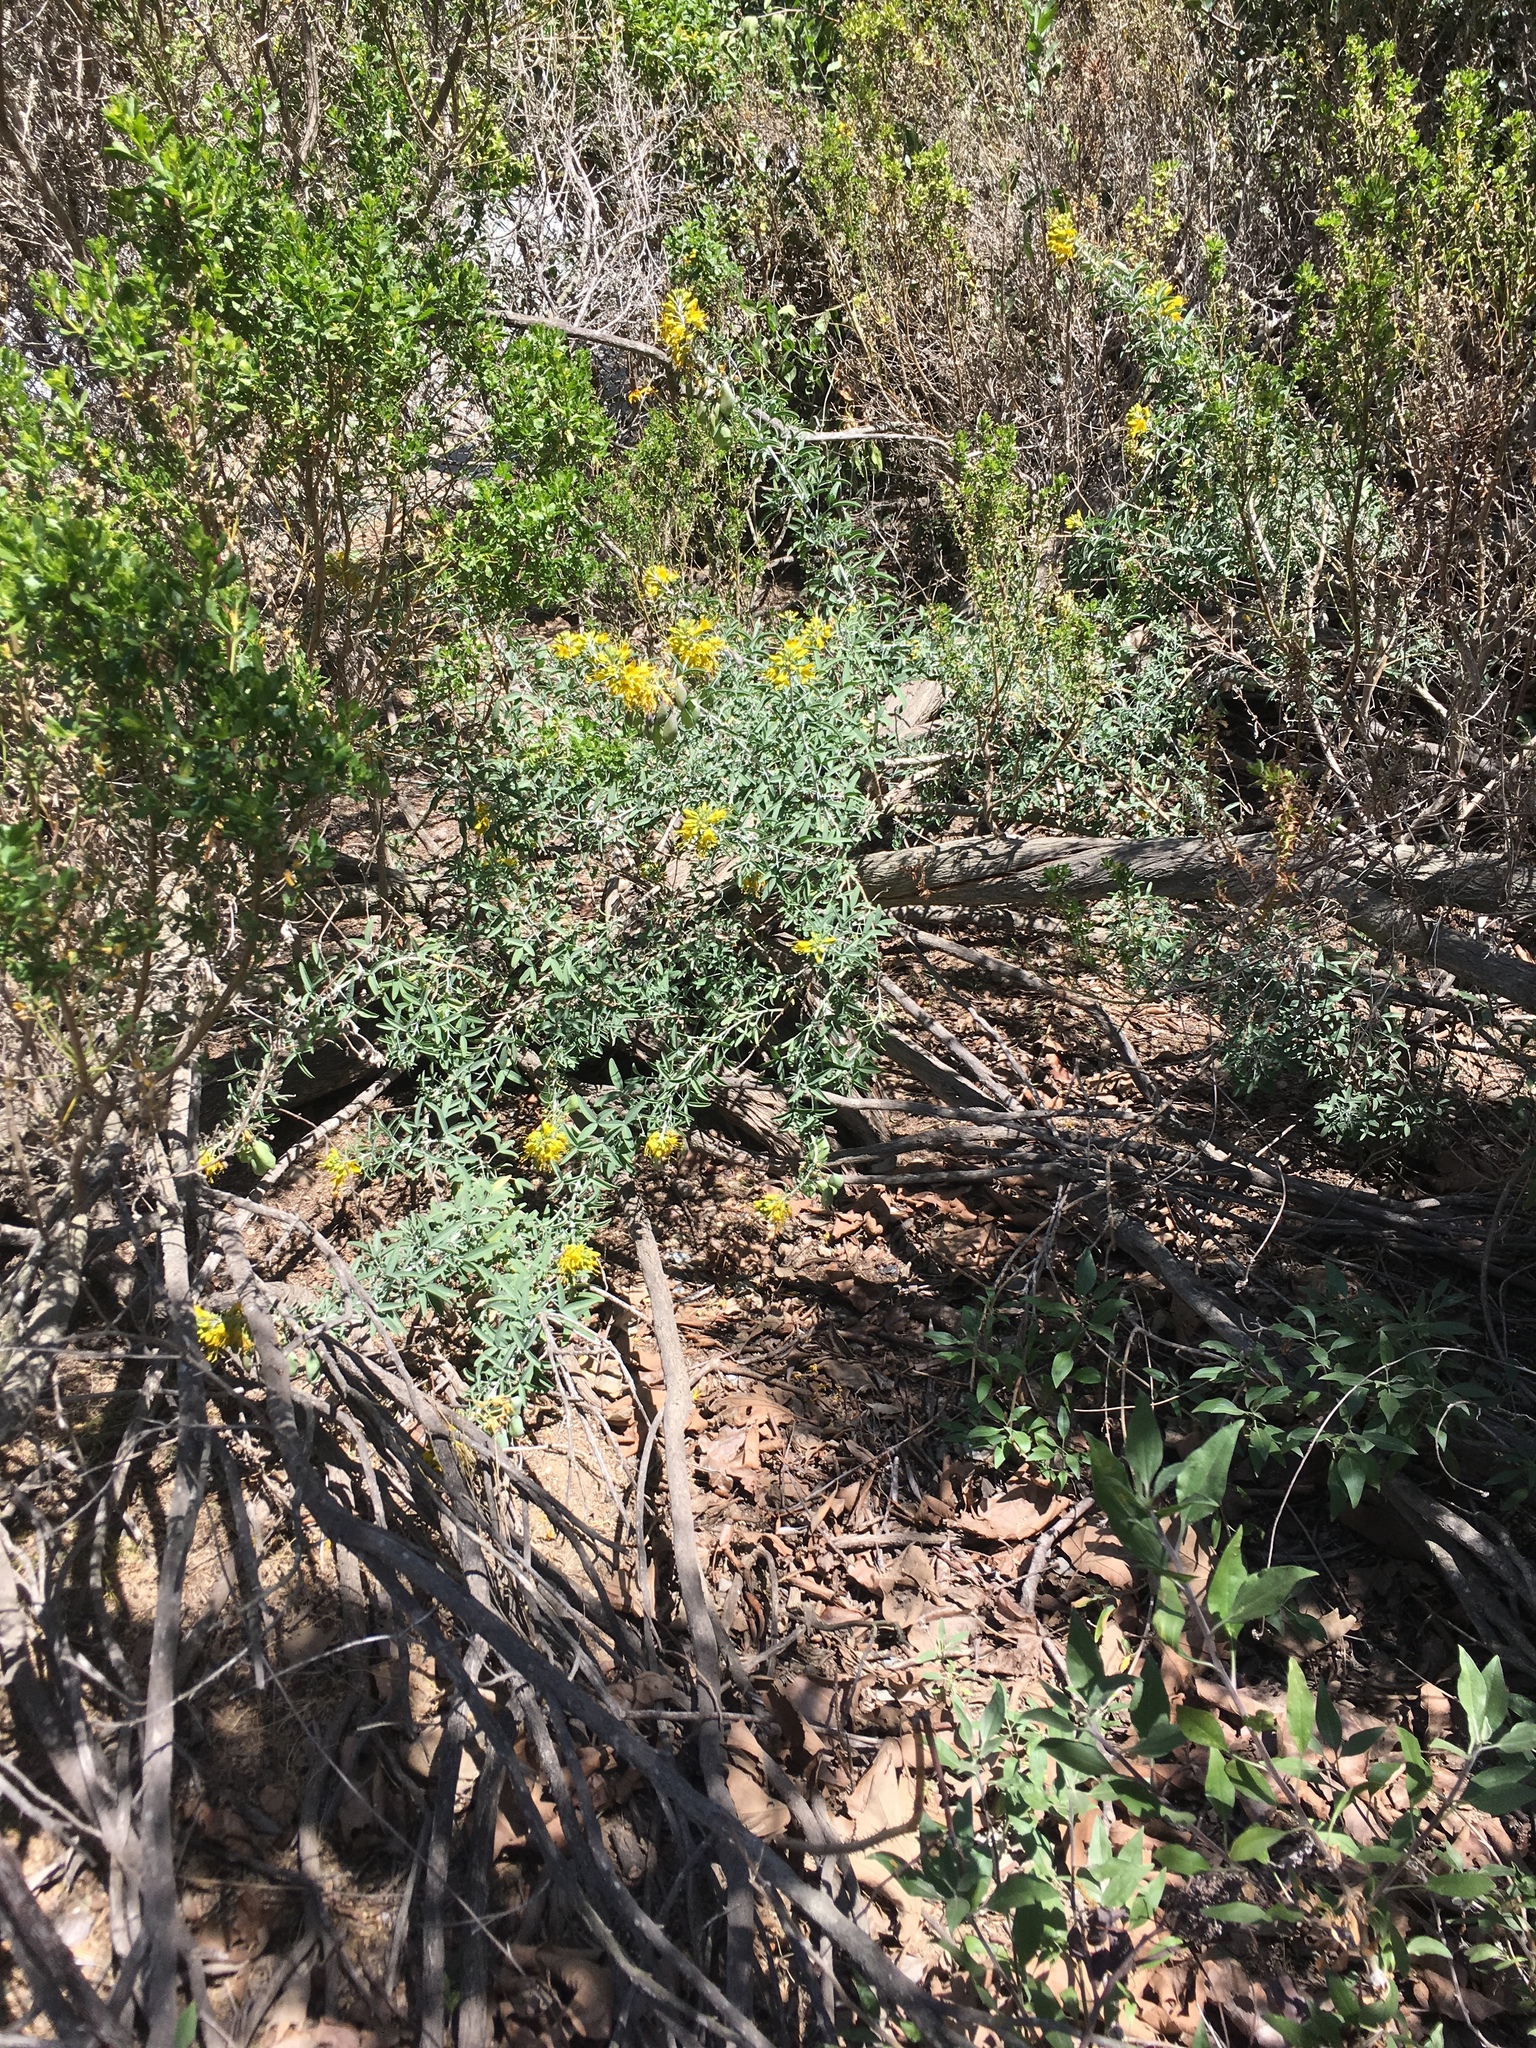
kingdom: Plantae
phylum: Tracheophyta
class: Magnoliopsida
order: Brassicales
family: Cleomaceae
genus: Cleomella
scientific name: Cleomella arborea
